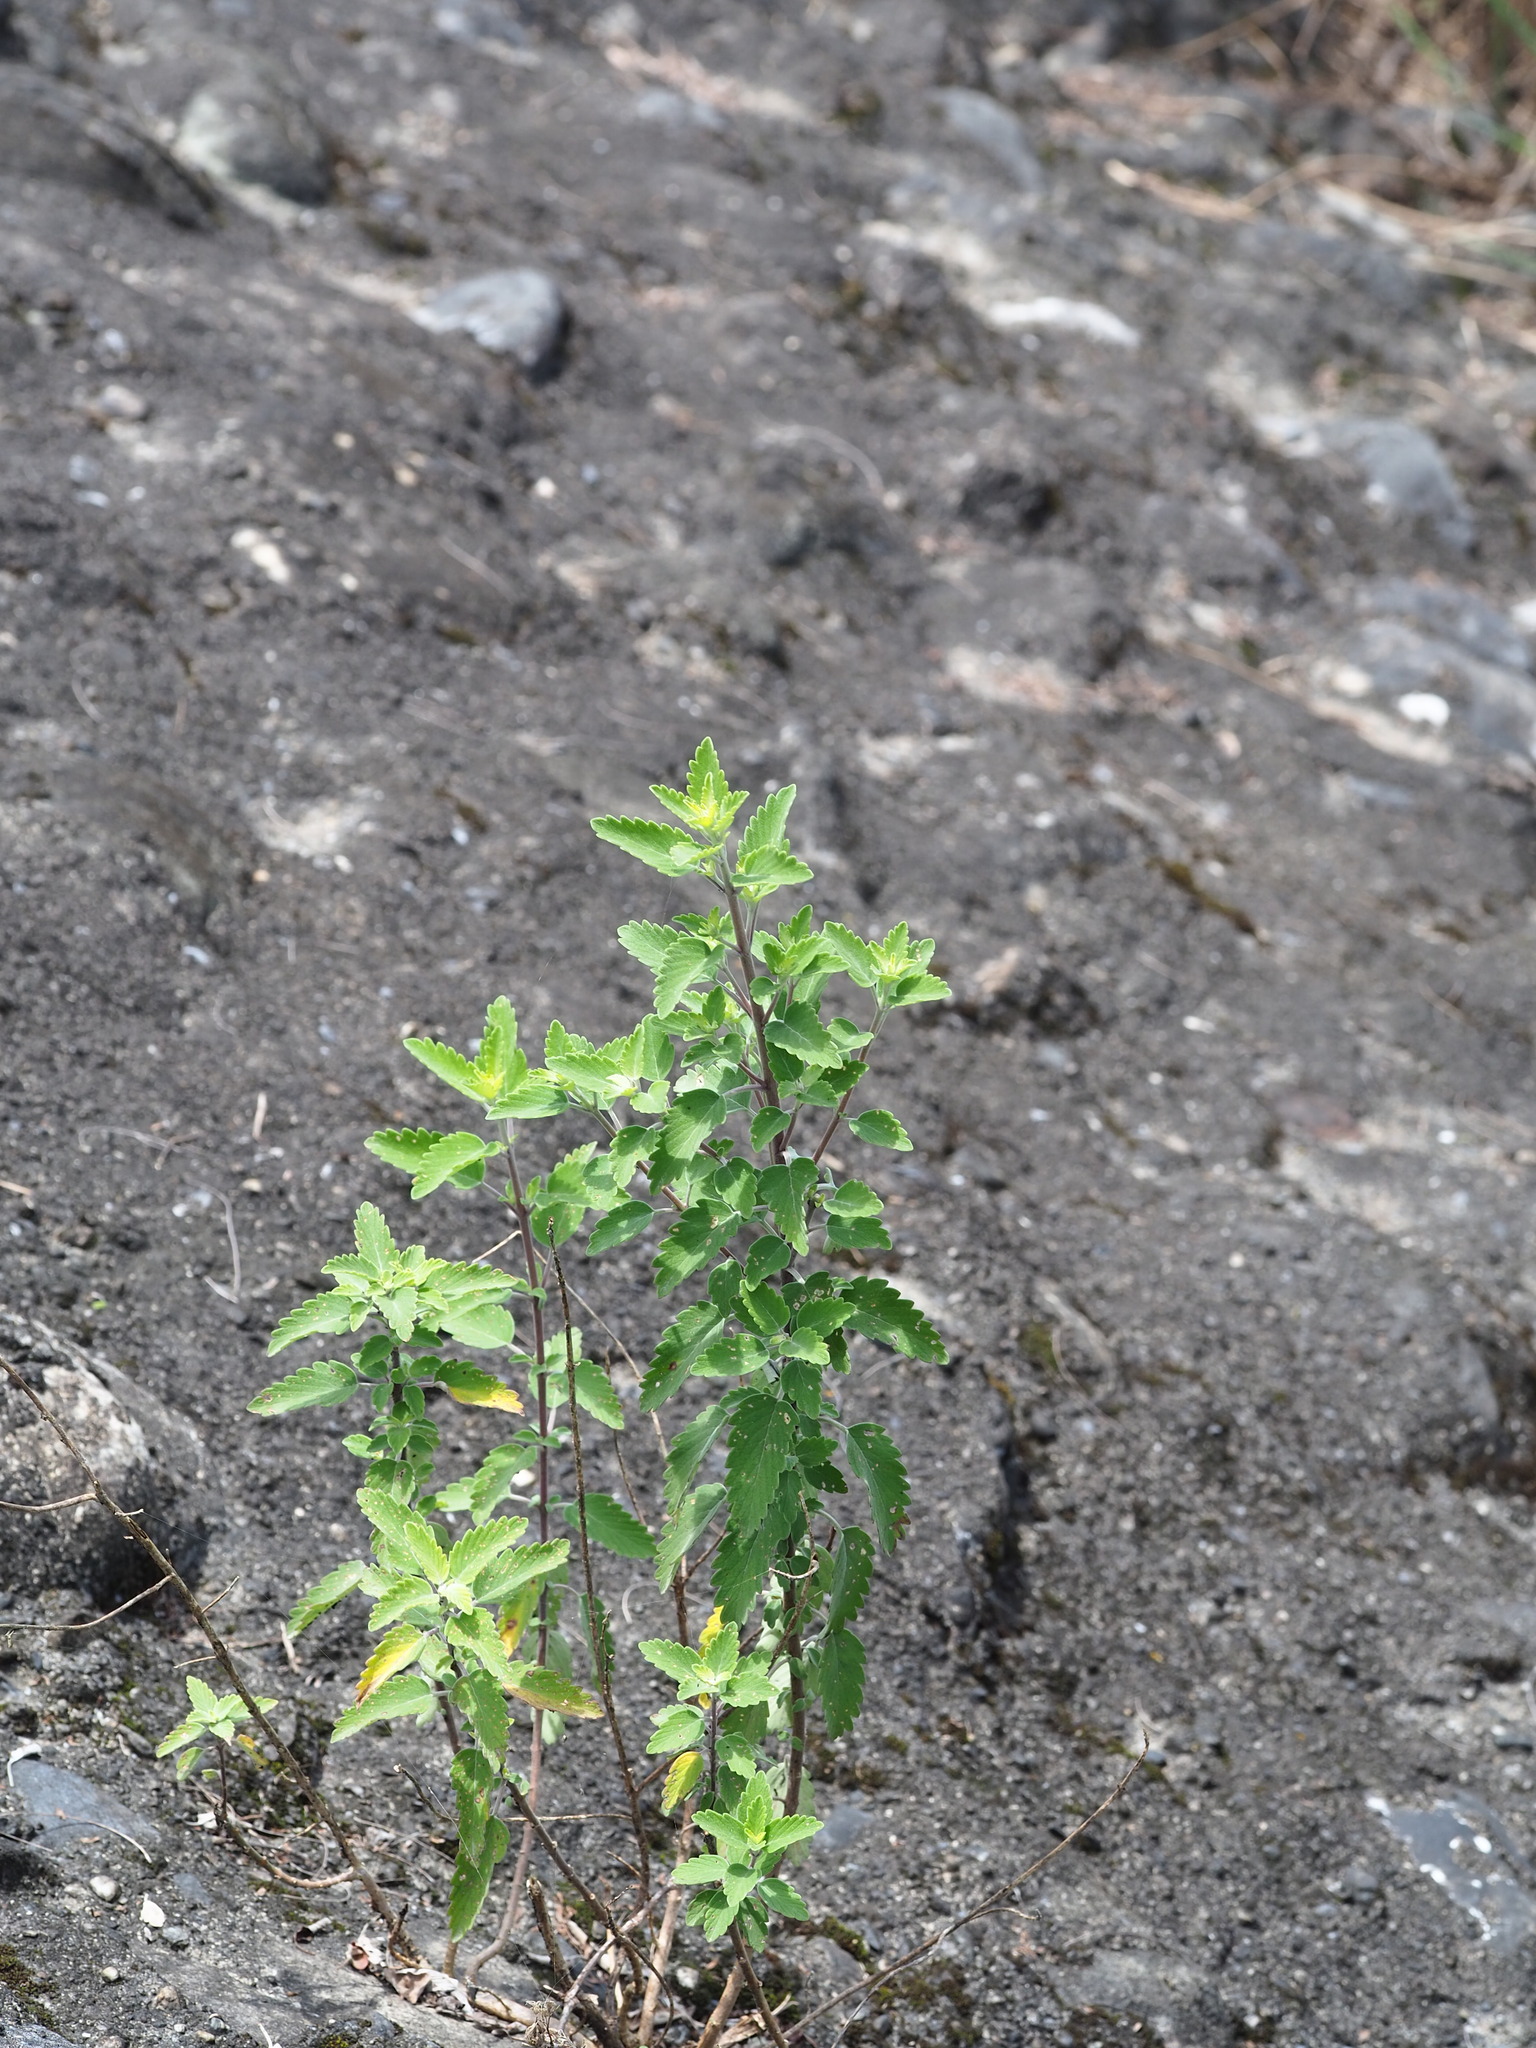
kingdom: Plantae
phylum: Tracheophyta
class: Magnoliopsida
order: Lamiales
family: Lamiaceae
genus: Caryopteris
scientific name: Caryopteris incana
